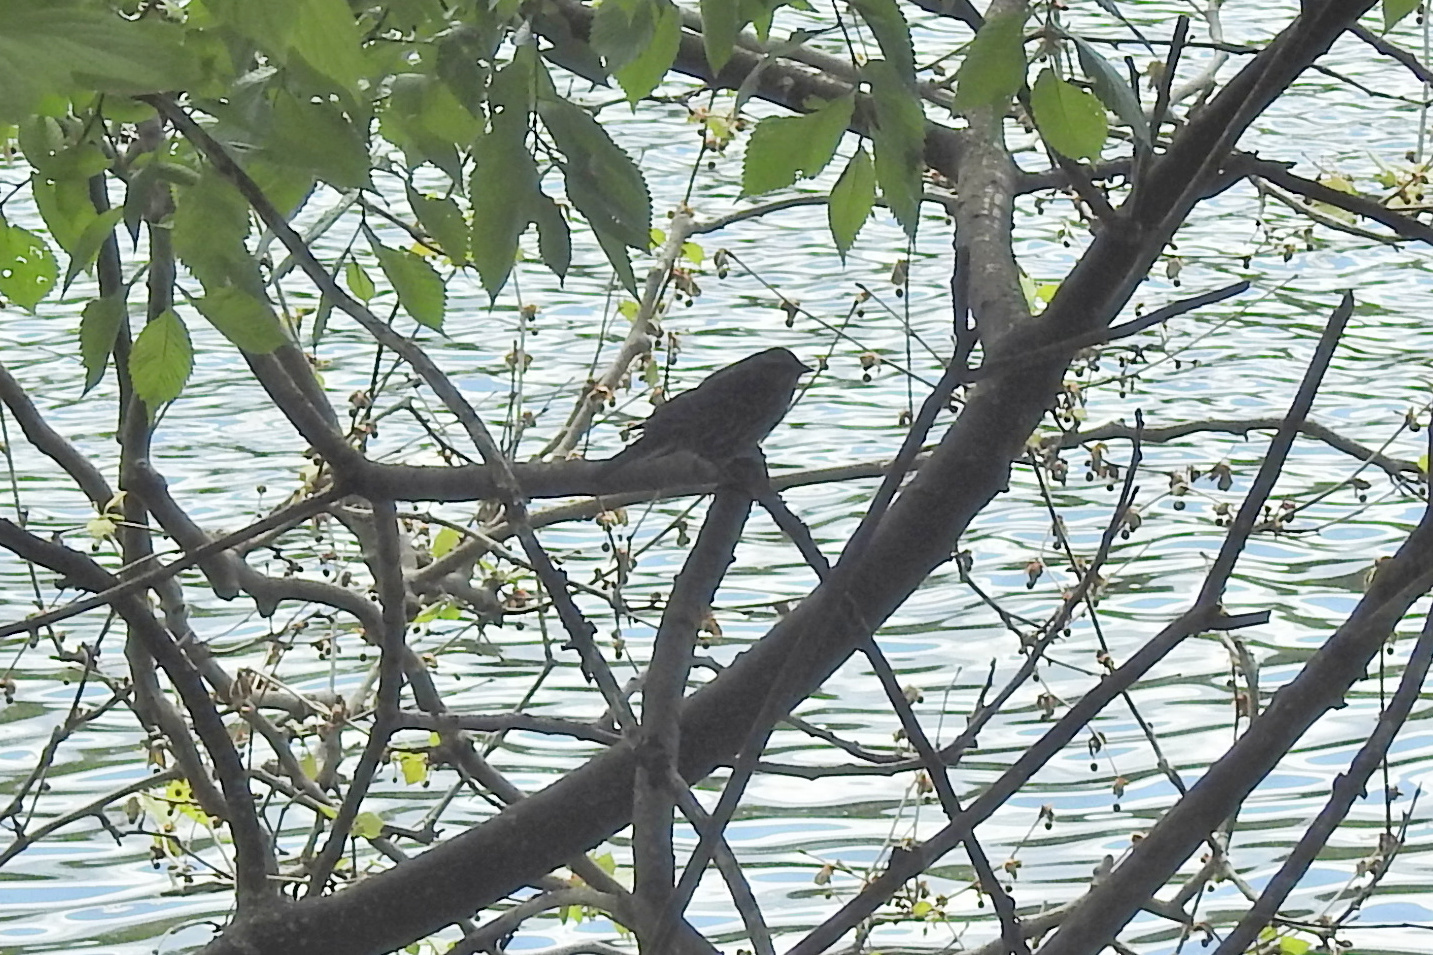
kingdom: Animalia
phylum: Chordata
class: Aves
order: Passeriformes
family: Icteridae
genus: Agelaius
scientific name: Agelaius phoeniceus
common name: Red-winged blackbird
